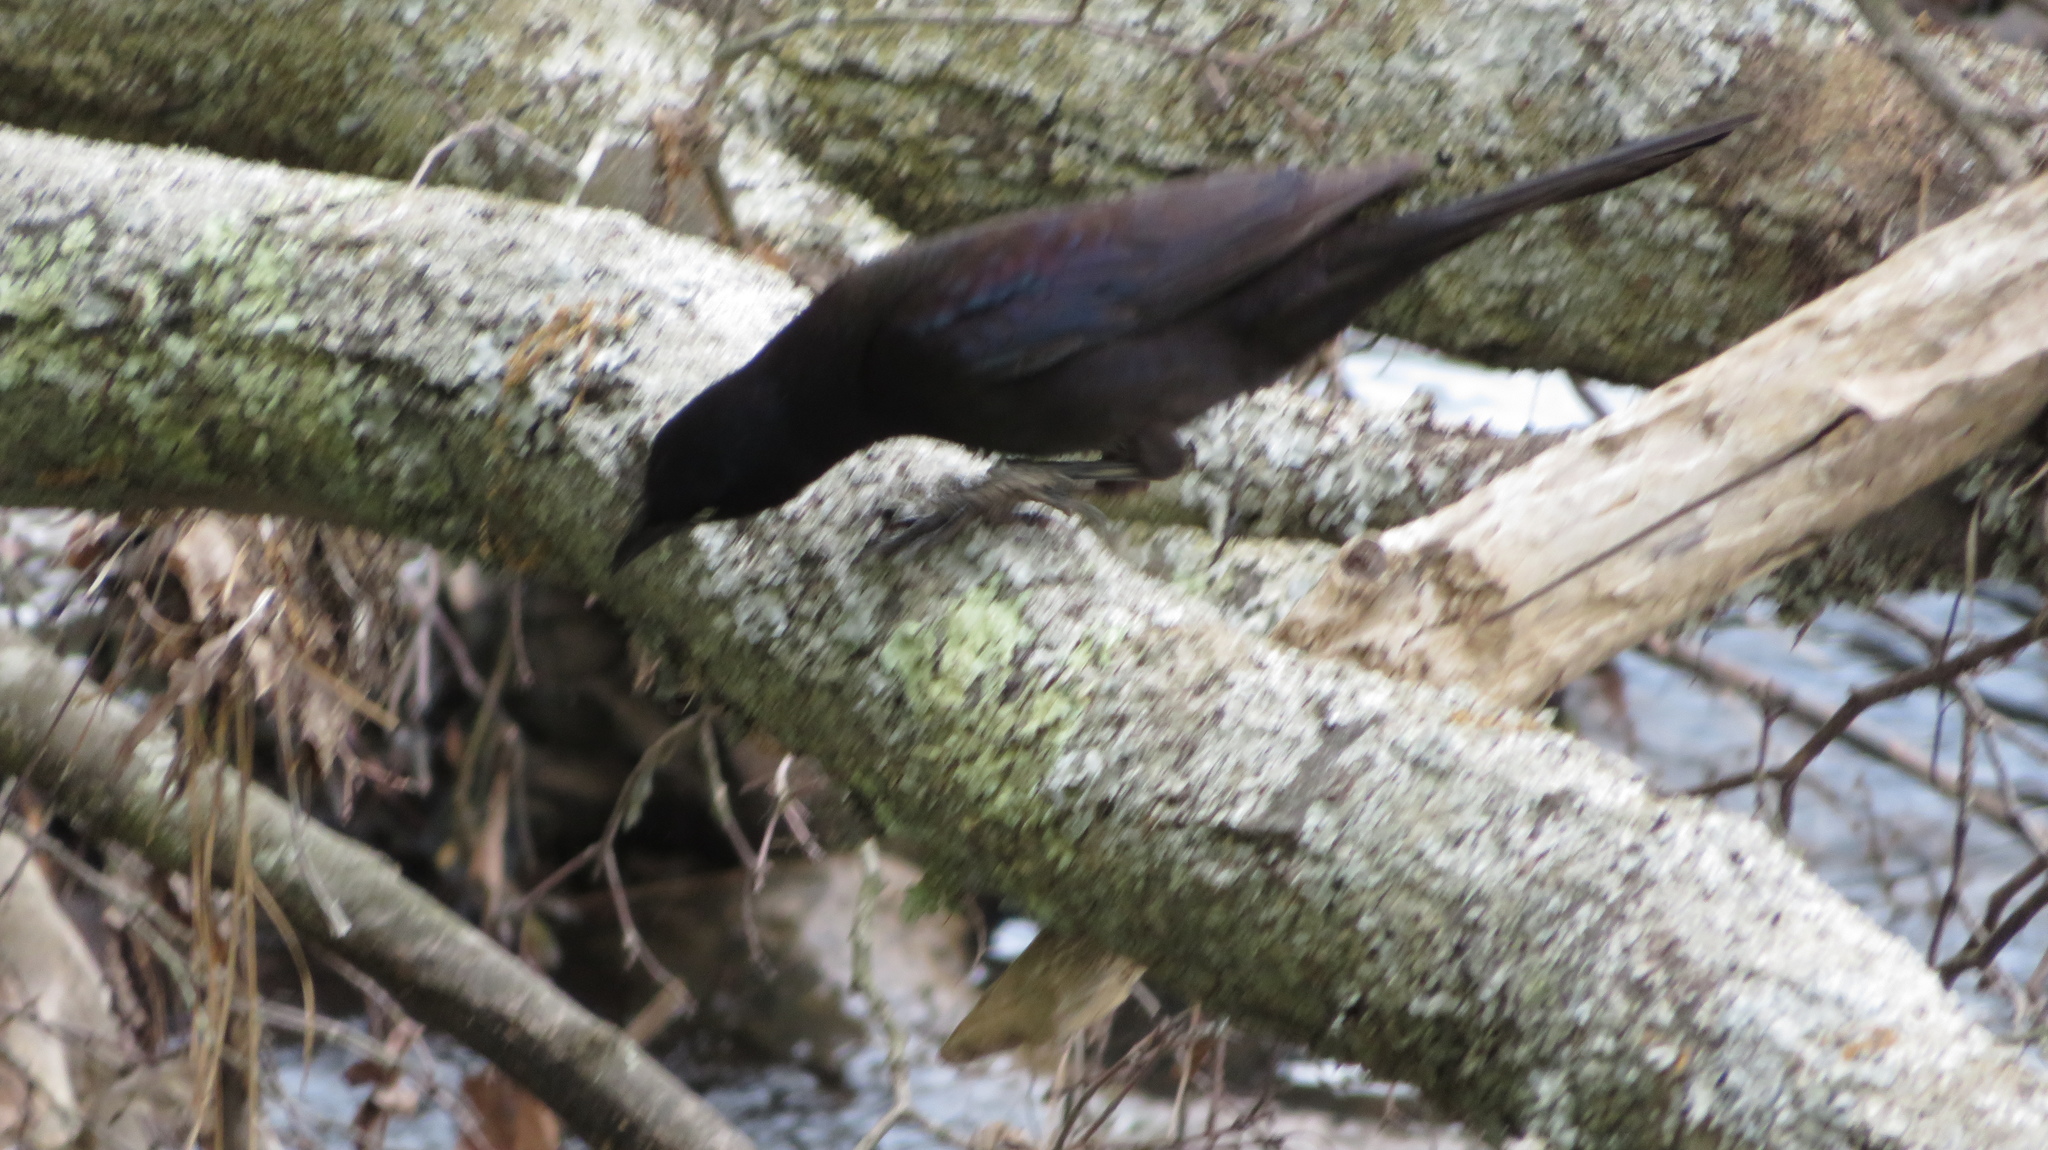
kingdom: Animalia
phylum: Chordata
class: Aves
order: Passeriformes
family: Icteridae
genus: Quiscalus
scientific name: Quiscalus quiscula
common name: Common grackle
